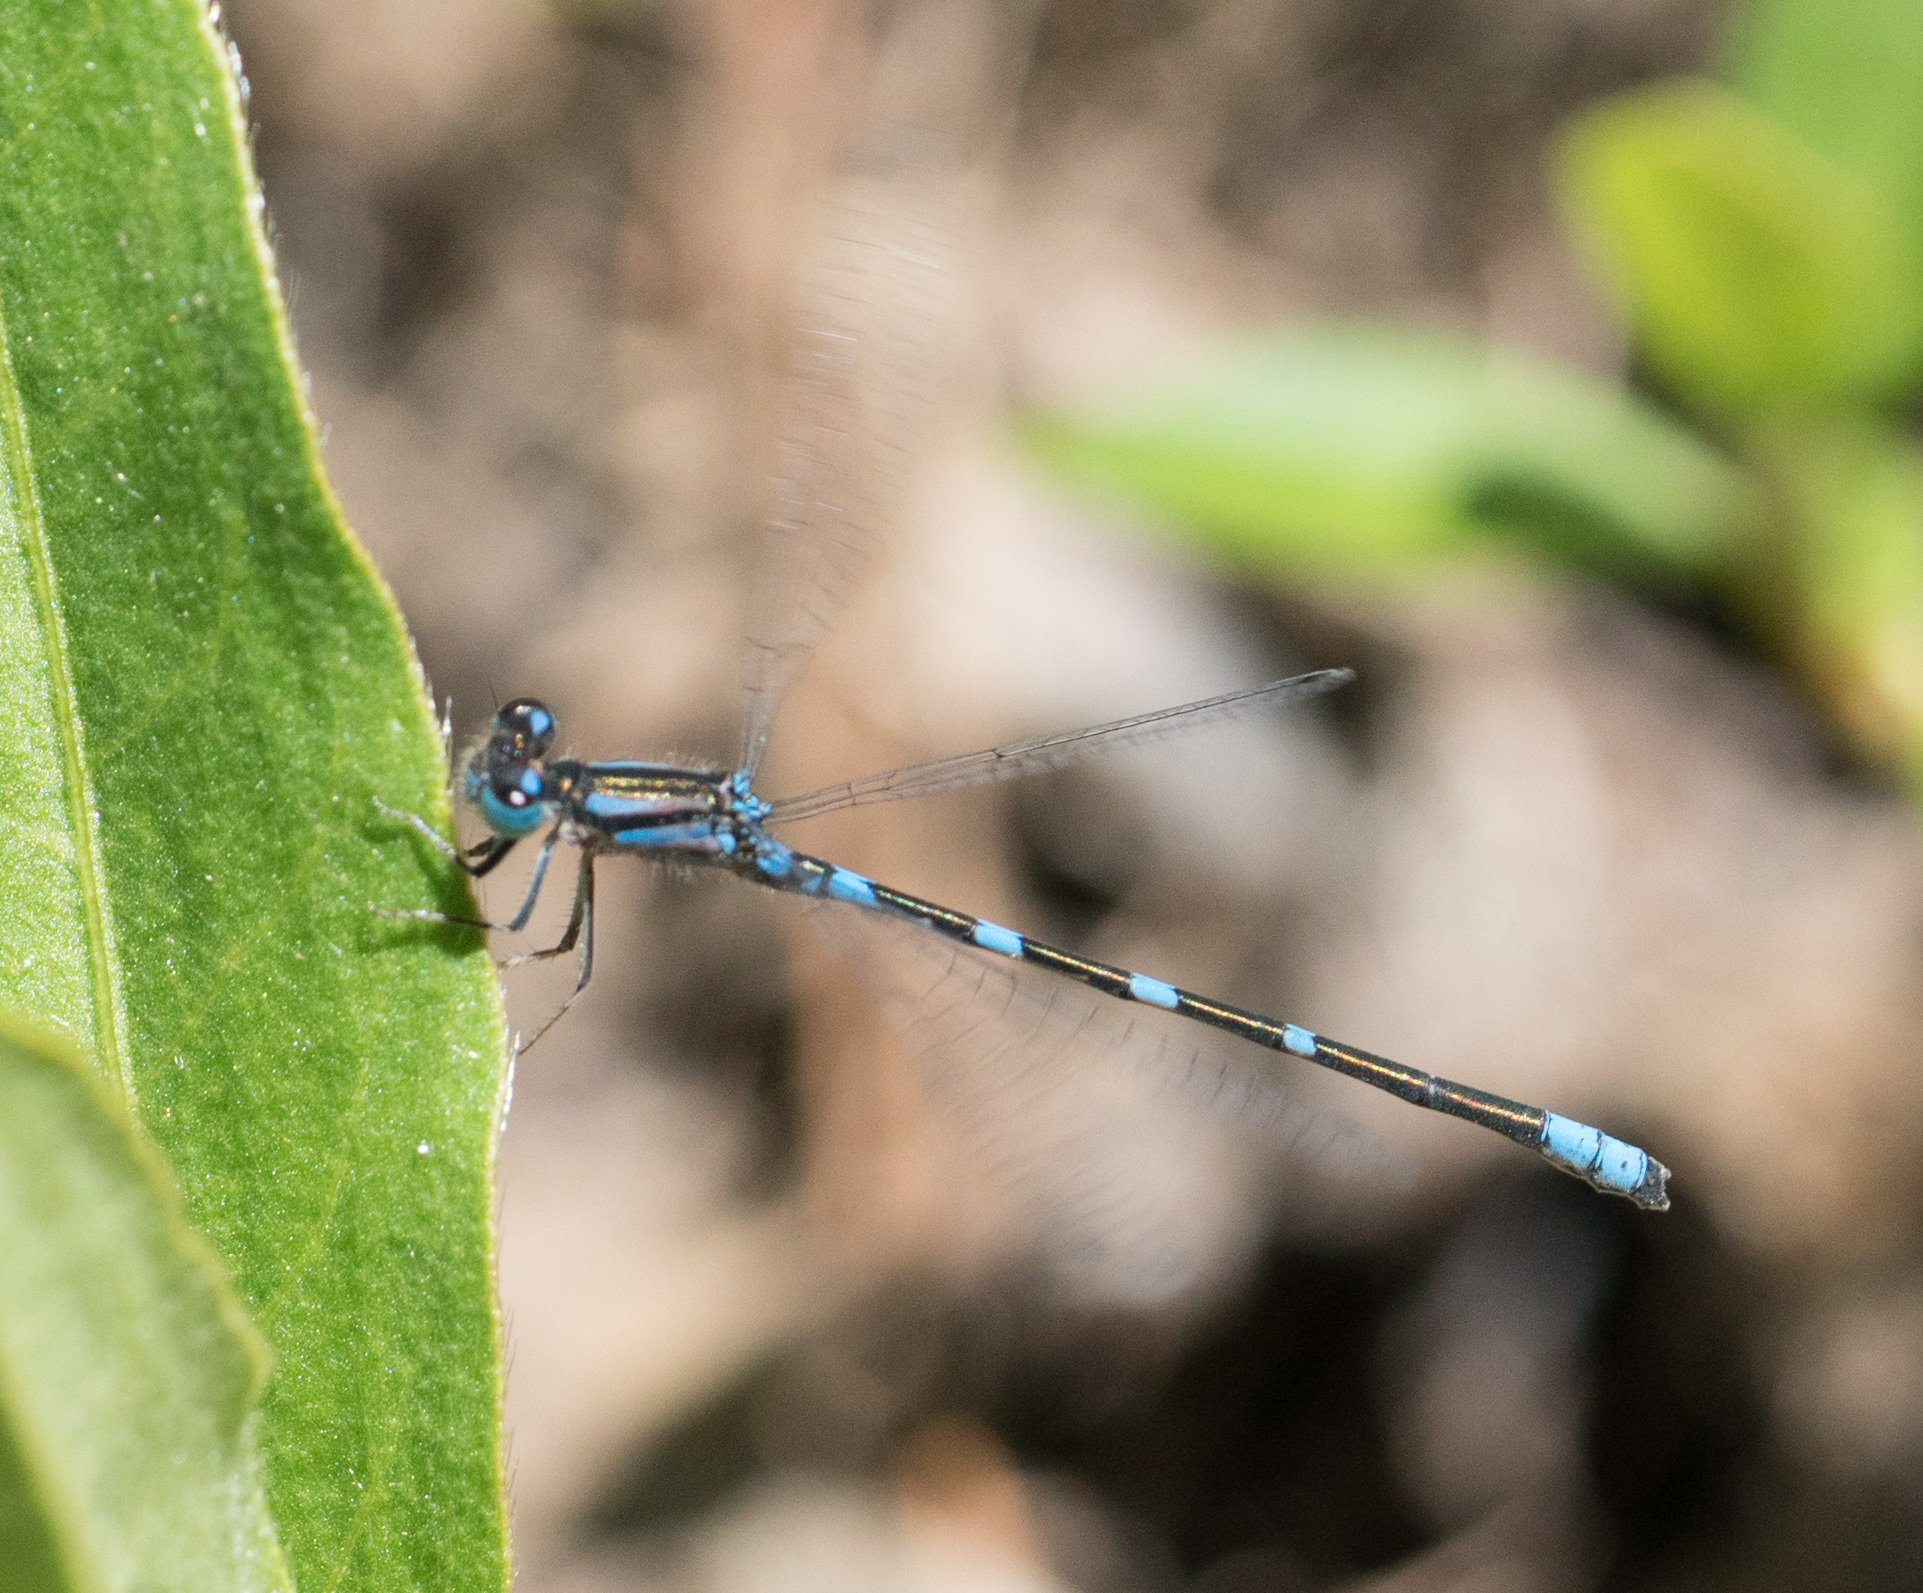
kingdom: Animalia
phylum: Arthropoda
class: Insecta
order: Odonata
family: Coenagrionidae
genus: Enallagma
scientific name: Enallagma carunculatum
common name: Tule bluet
